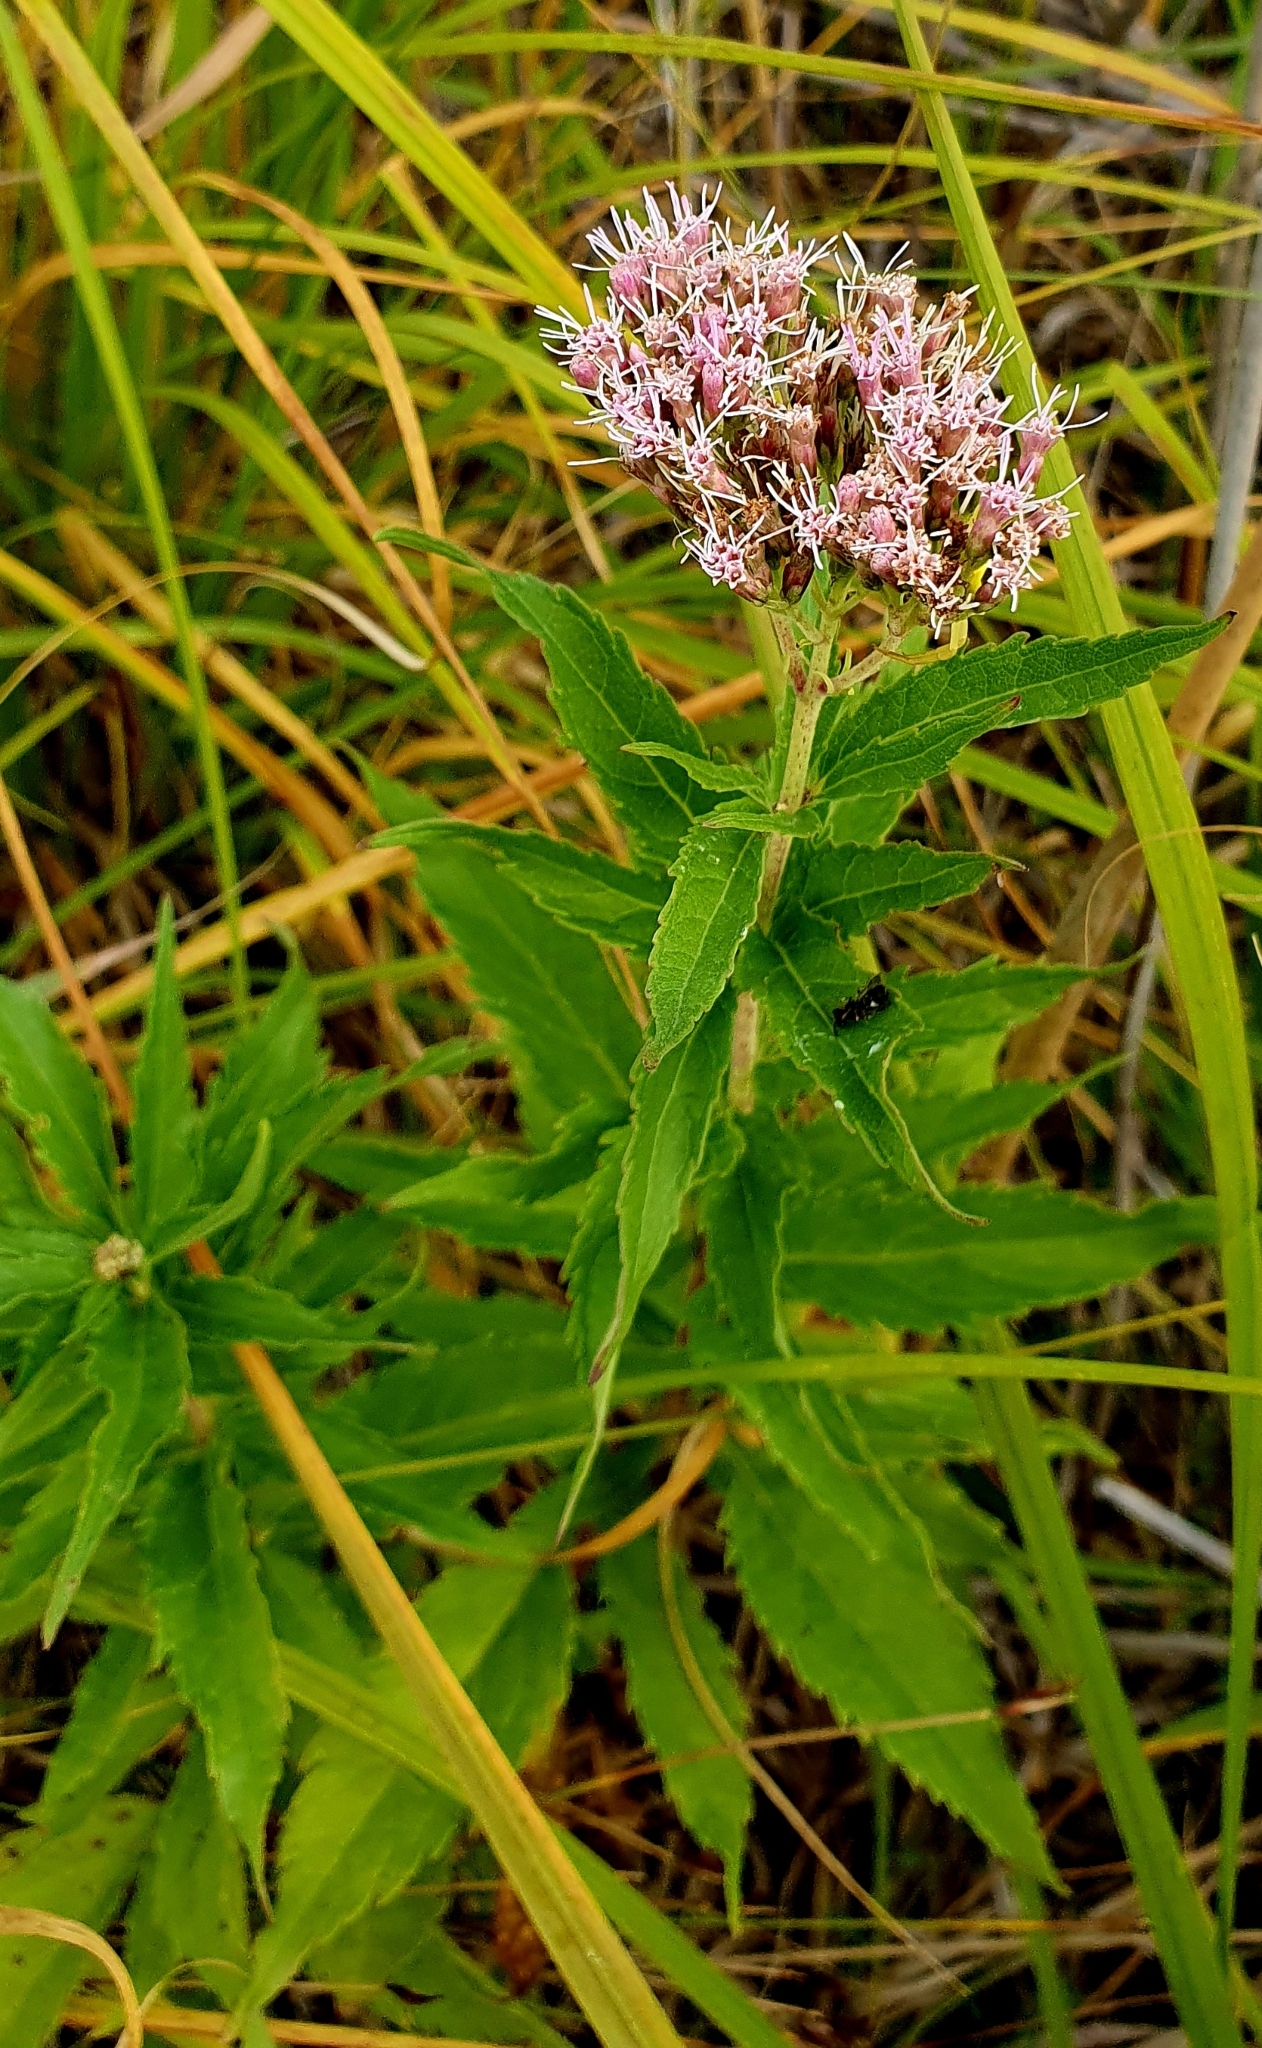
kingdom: Plantae
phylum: Tracheophyta
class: Magnoliopsida
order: Asterales
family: Asteraceae
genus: Eupatorium
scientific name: Eupatorium cannabinum
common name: Hemp-agrimony
